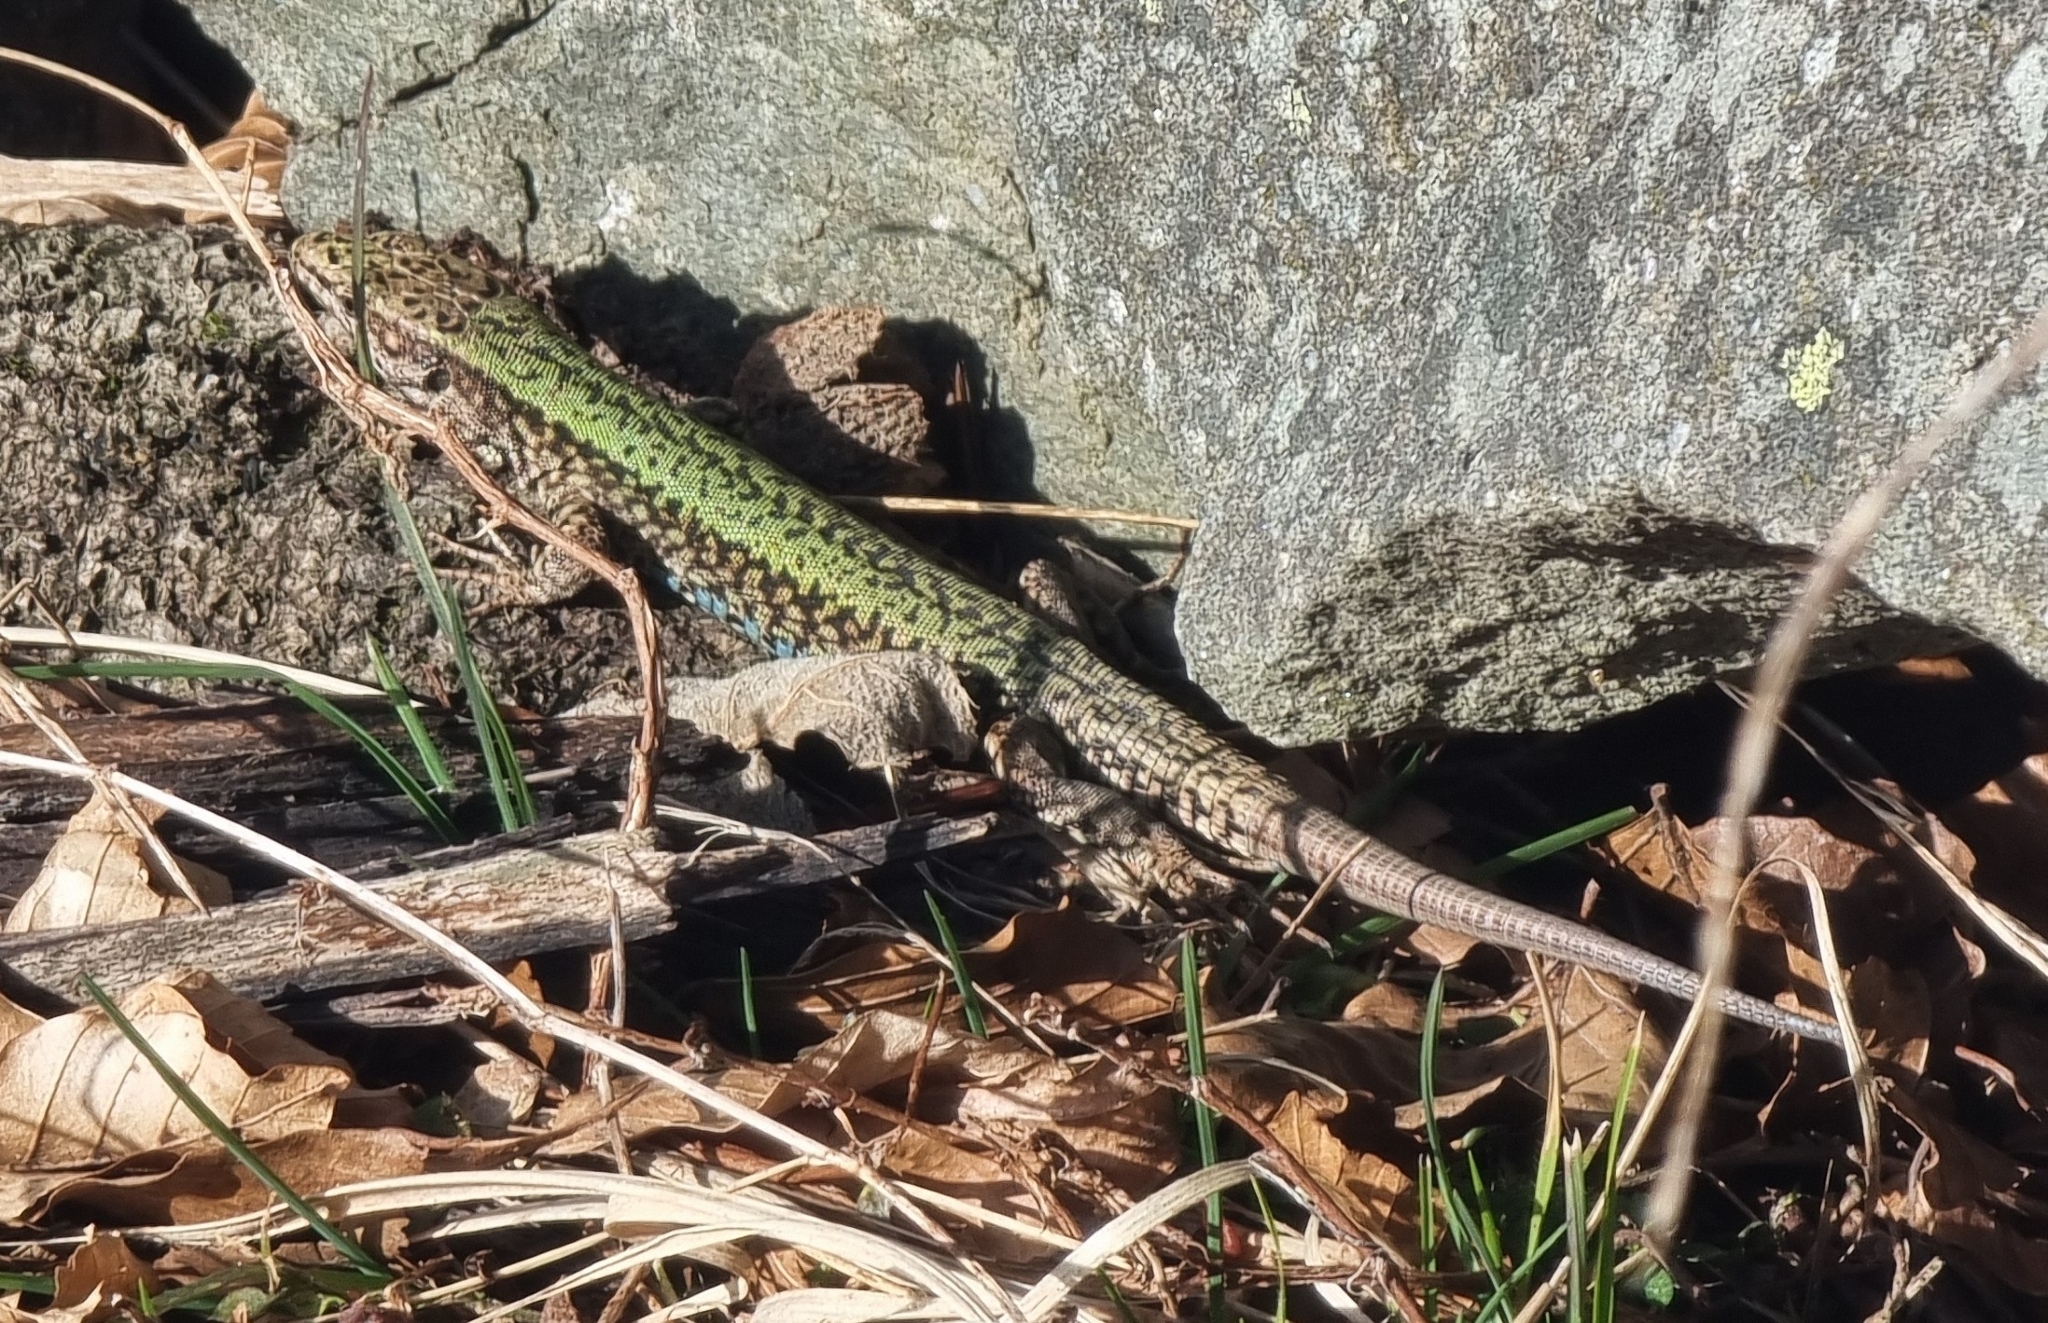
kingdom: Animalia
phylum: Chordata
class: Squamata
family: Lacertidae
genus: Podarcis
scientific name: Podarcis muralis
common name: Common wall lizard
